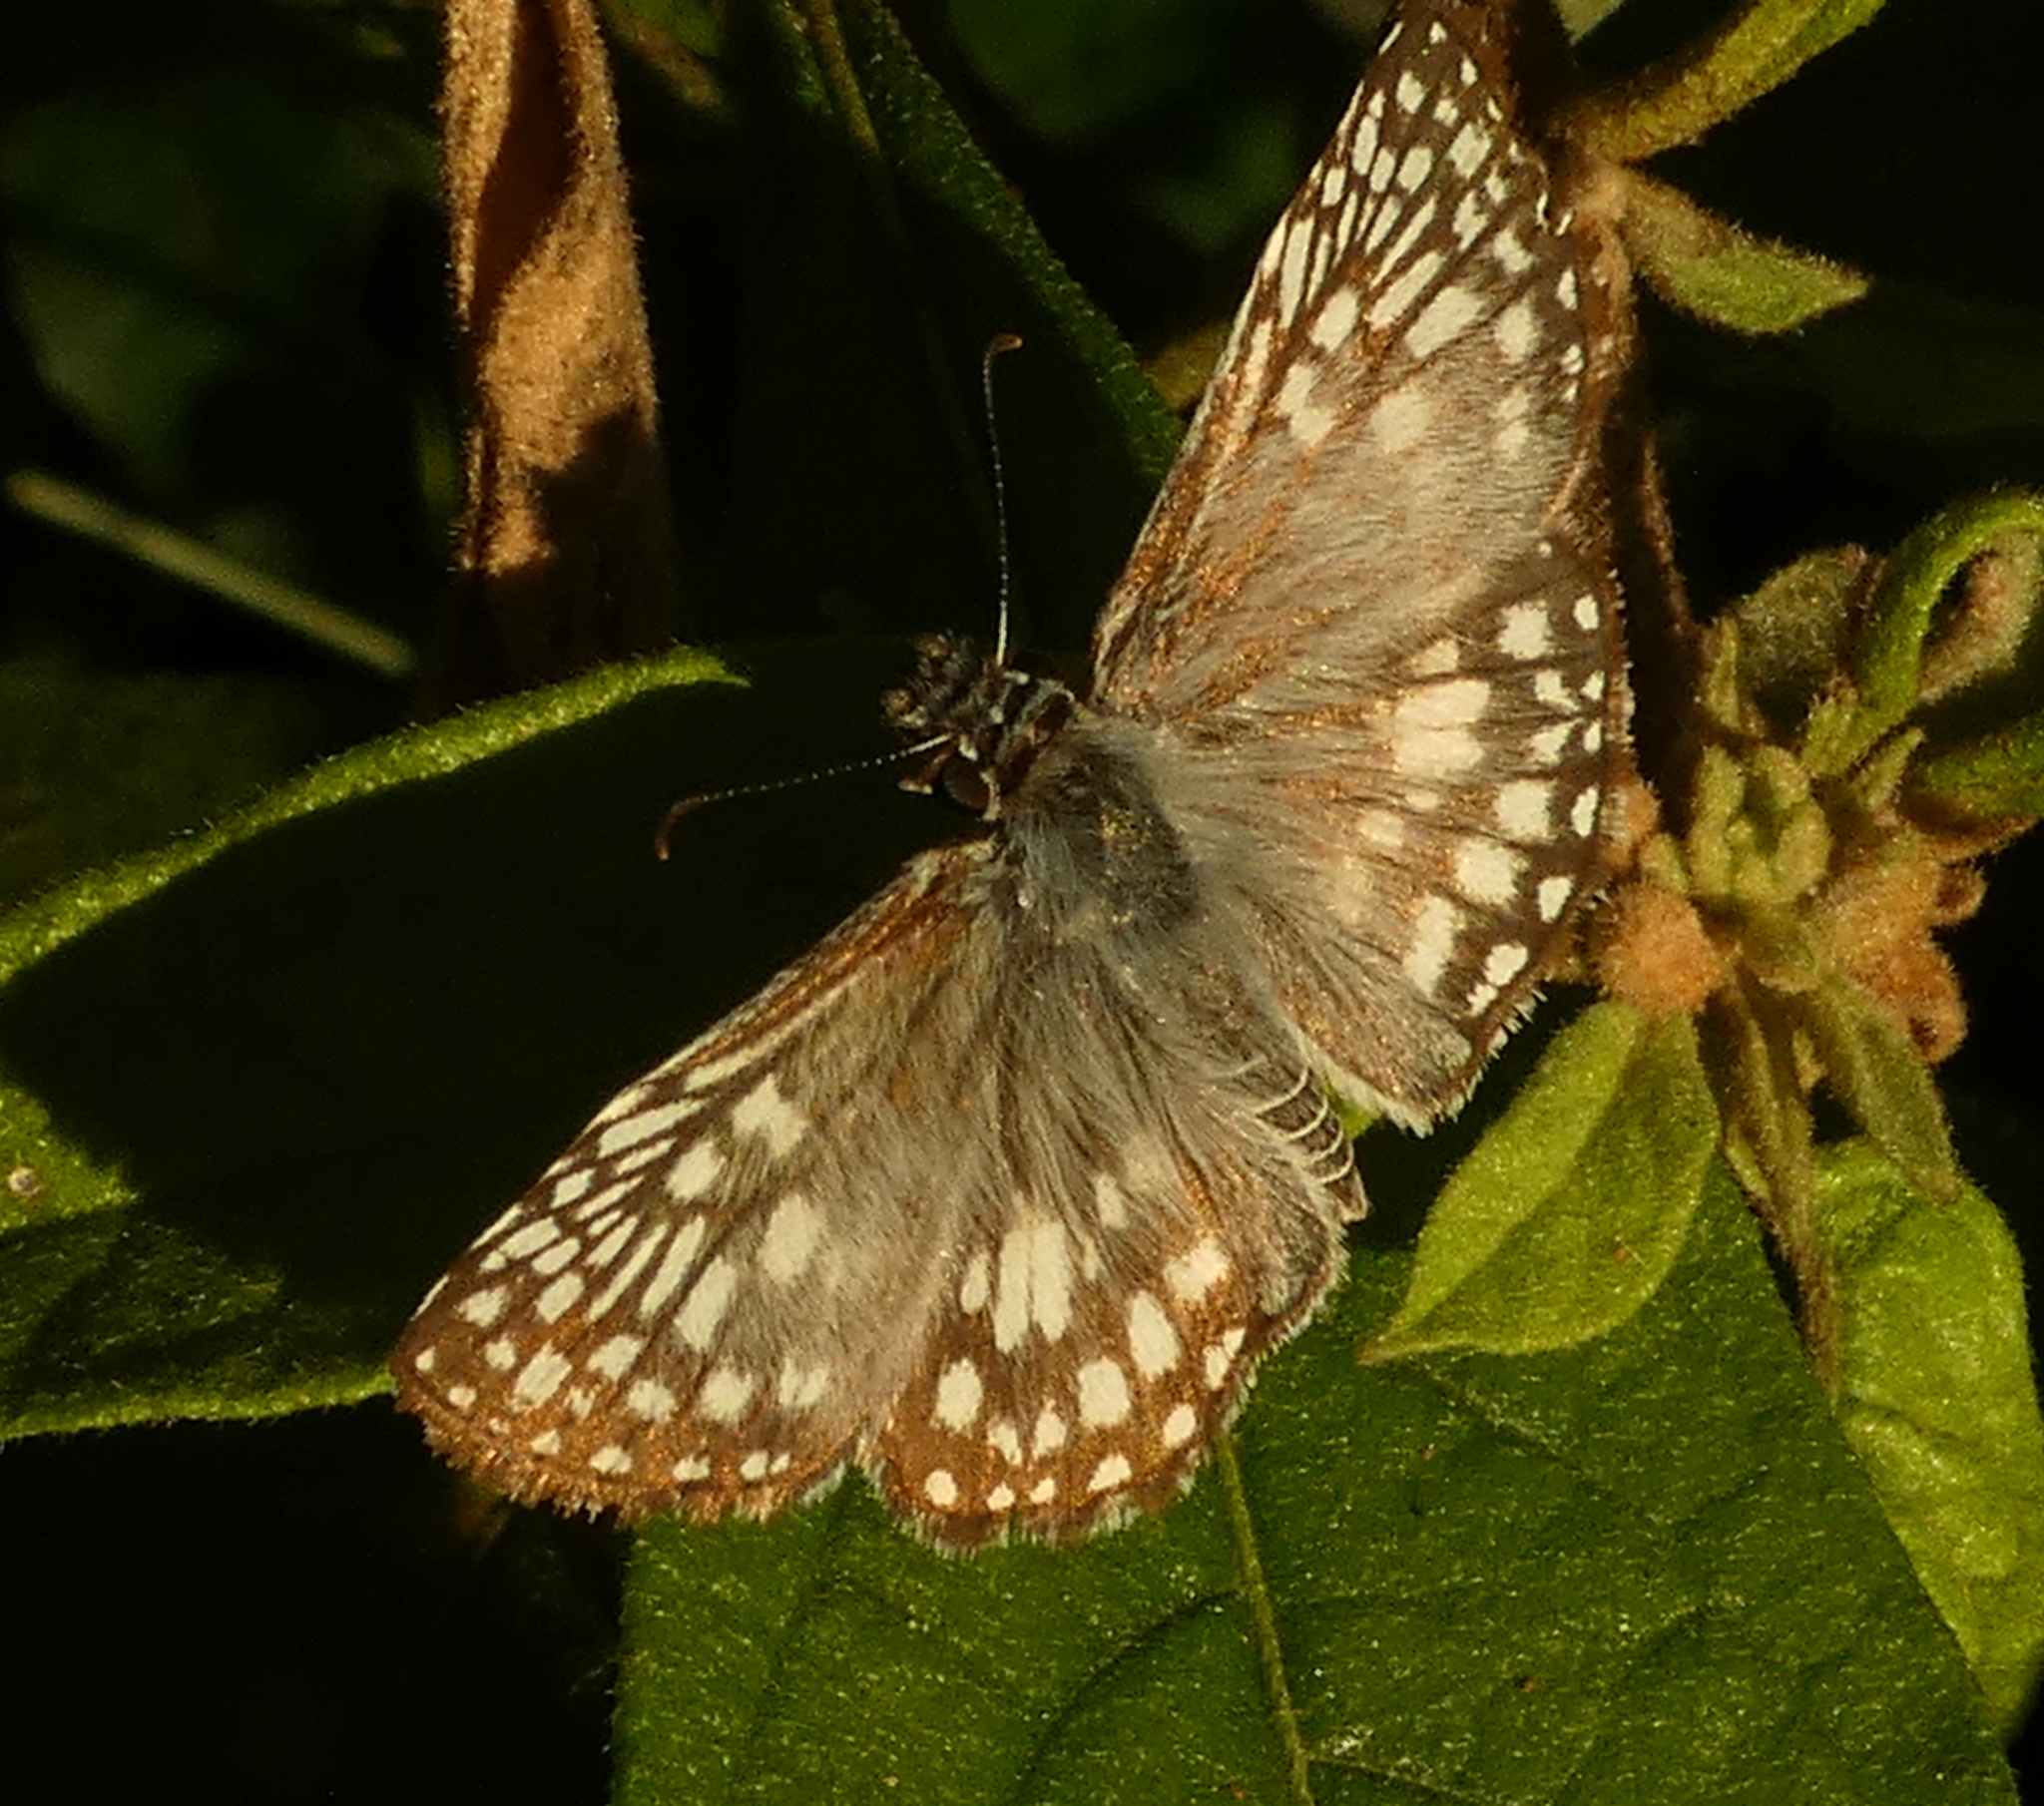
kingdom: Animalia
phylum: Arthropoda
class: Insecta
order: Lepidoptera
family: Hesperiidae
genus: Pyrgus
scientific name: Pyrgus oileus
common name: Tropical checkered-skipper
